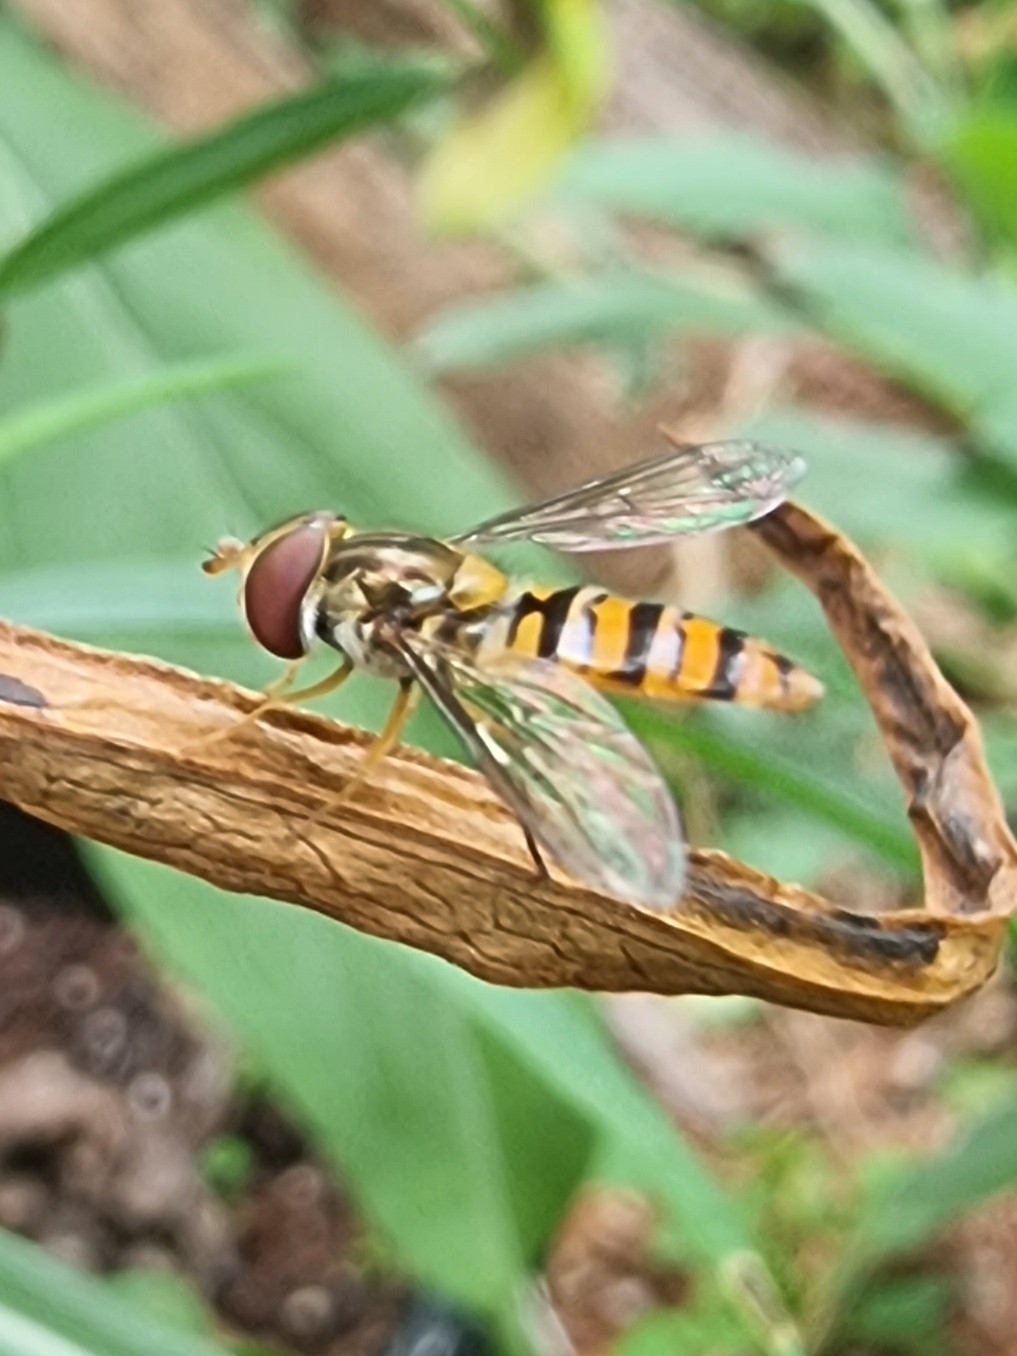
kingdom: Animalia
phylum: Arthropoda
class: Insecta
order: Diptera
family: Syrphidae
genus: Episyrphus
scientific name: Episyrphus balteatus
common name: Marmalade hoverfly
